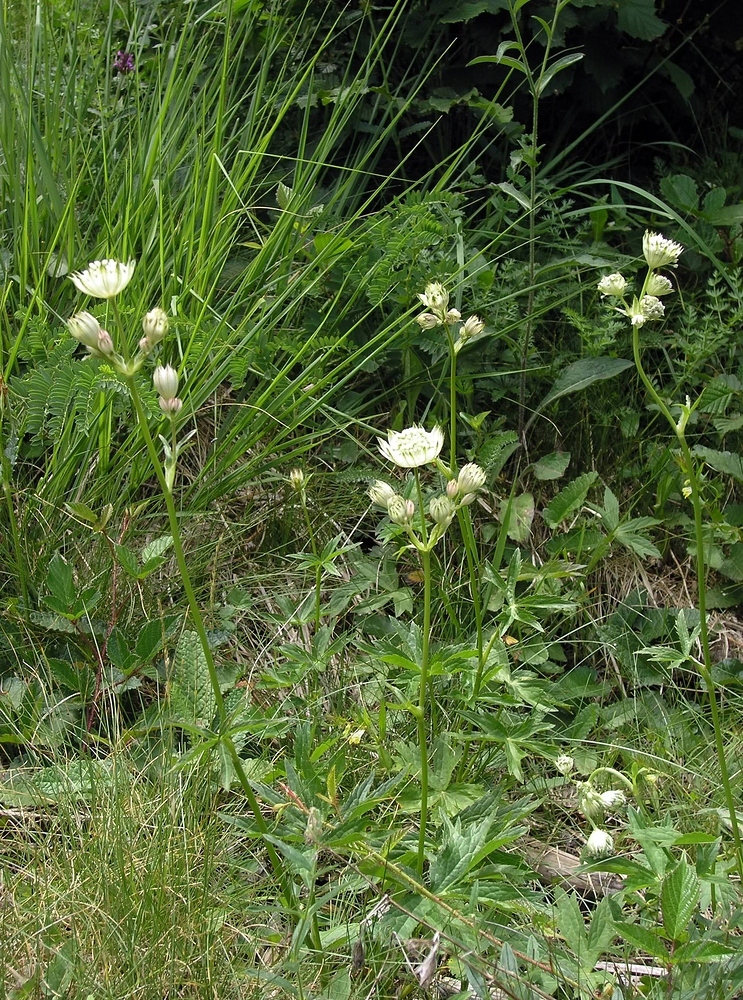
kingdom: Plantae
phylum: Tracheophyta
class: Magnoliopsida
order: Apiales
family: Apiaceae
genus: Astrantia
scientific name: Astrantia major
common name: Greater masterwort
